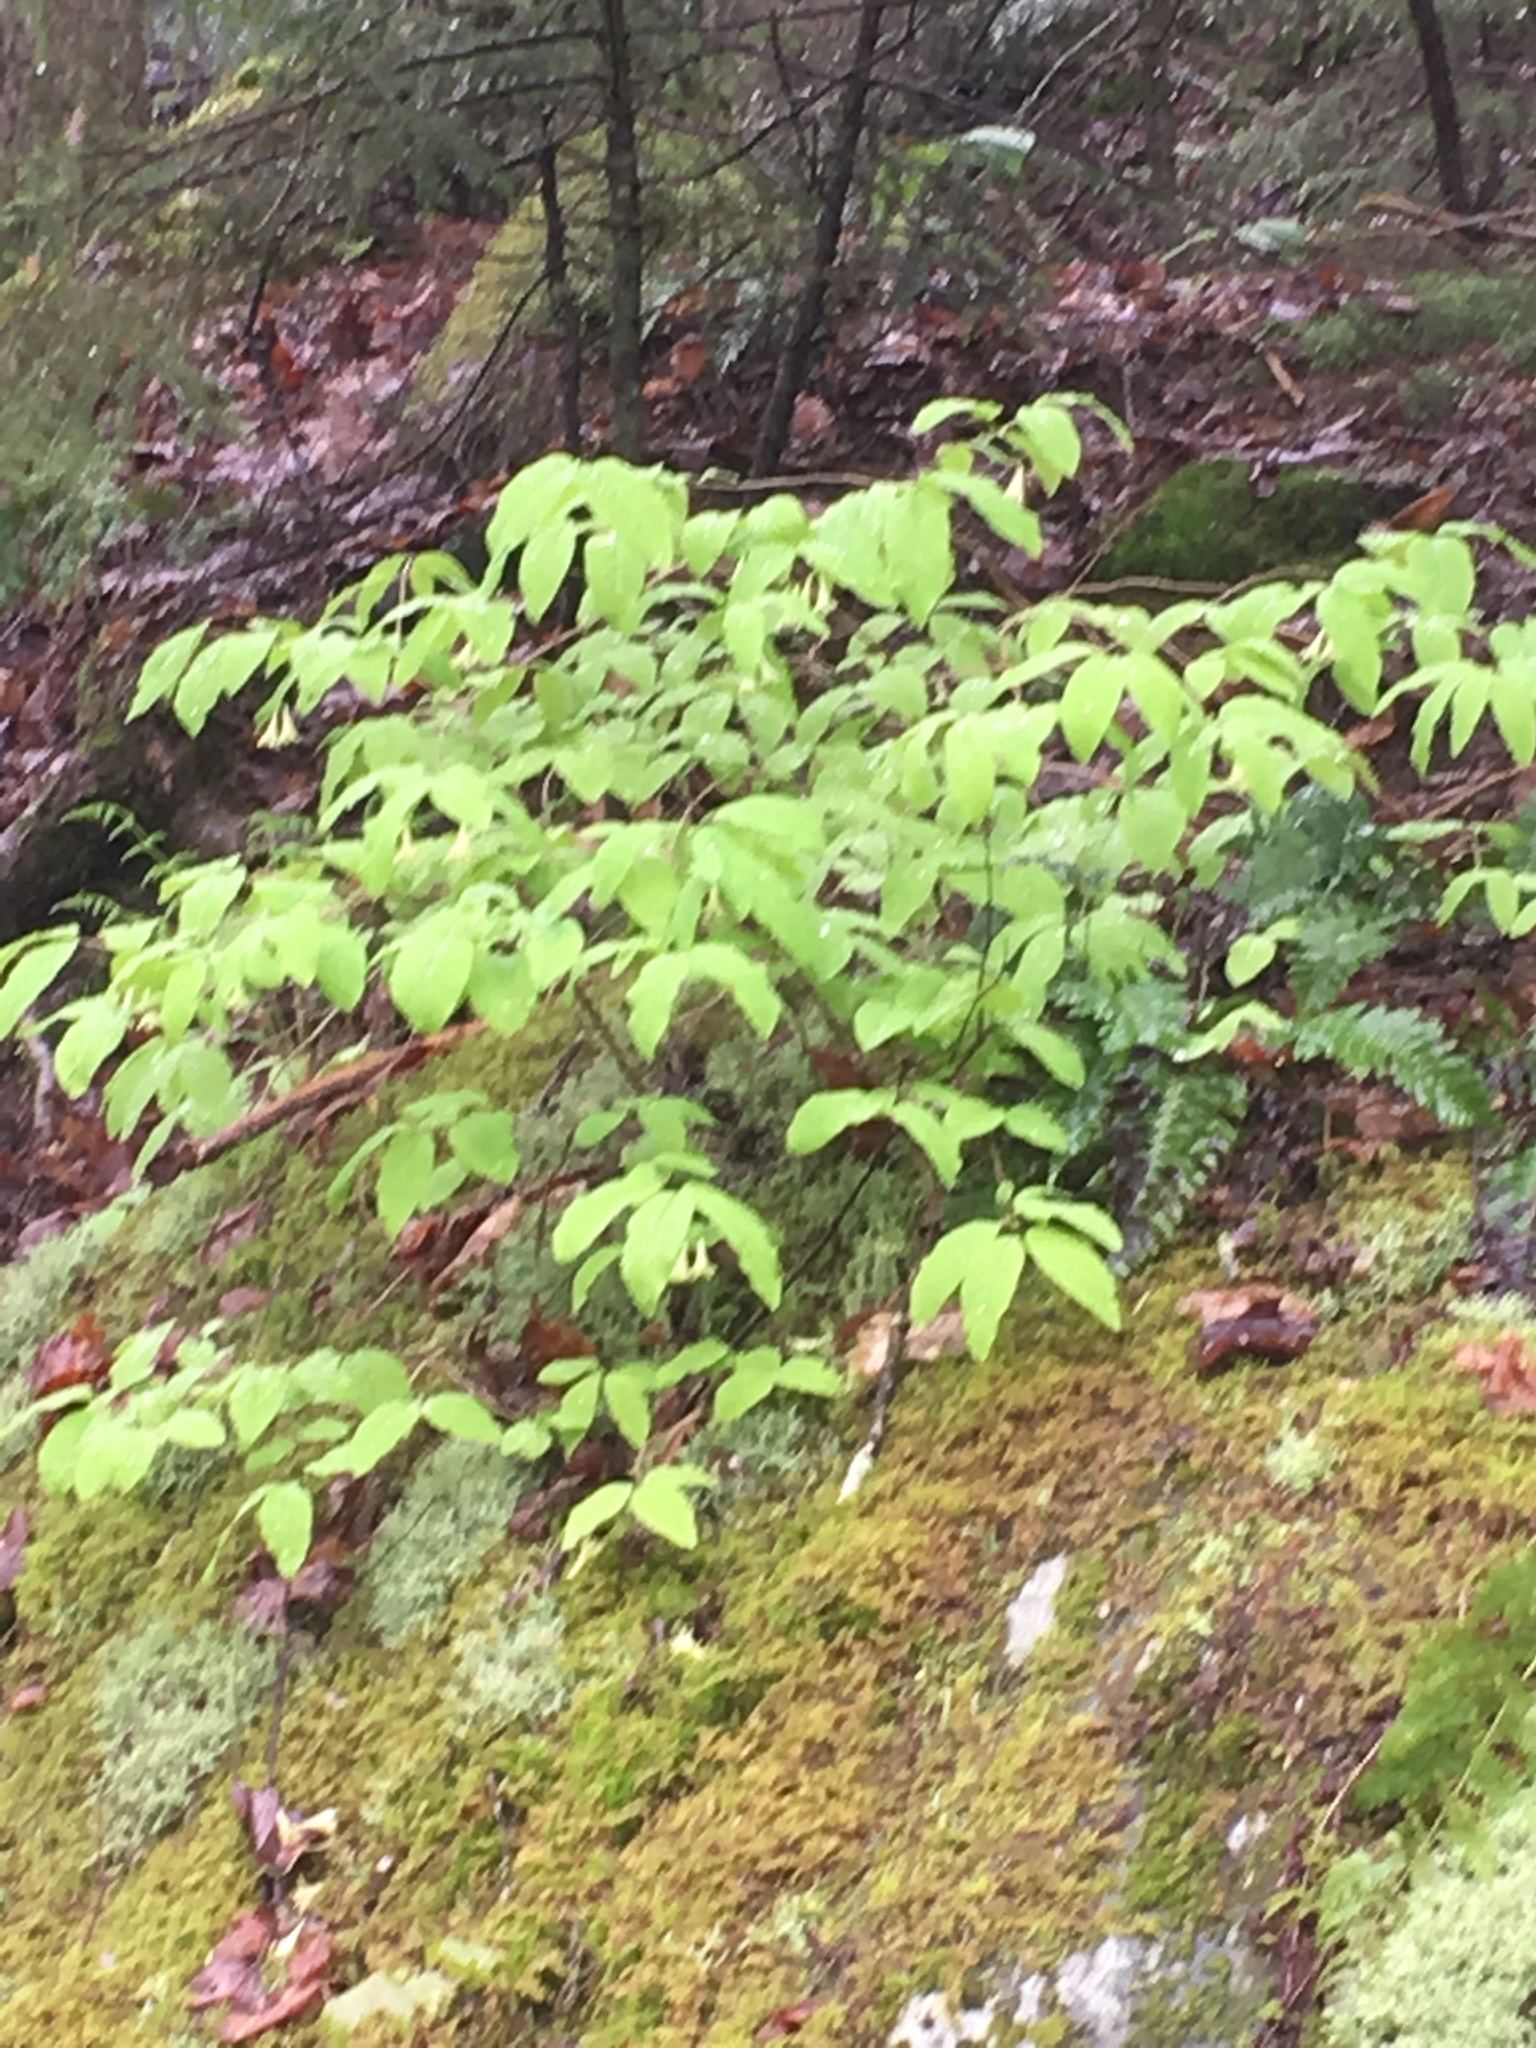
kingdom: Plantae
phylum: Tracheophyta
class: Magnoliopsida
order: Dipsacales
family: Caprifoliaceae
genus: Lonicera
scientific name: Lonicera canadensis
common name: American fly-honeysuckle
